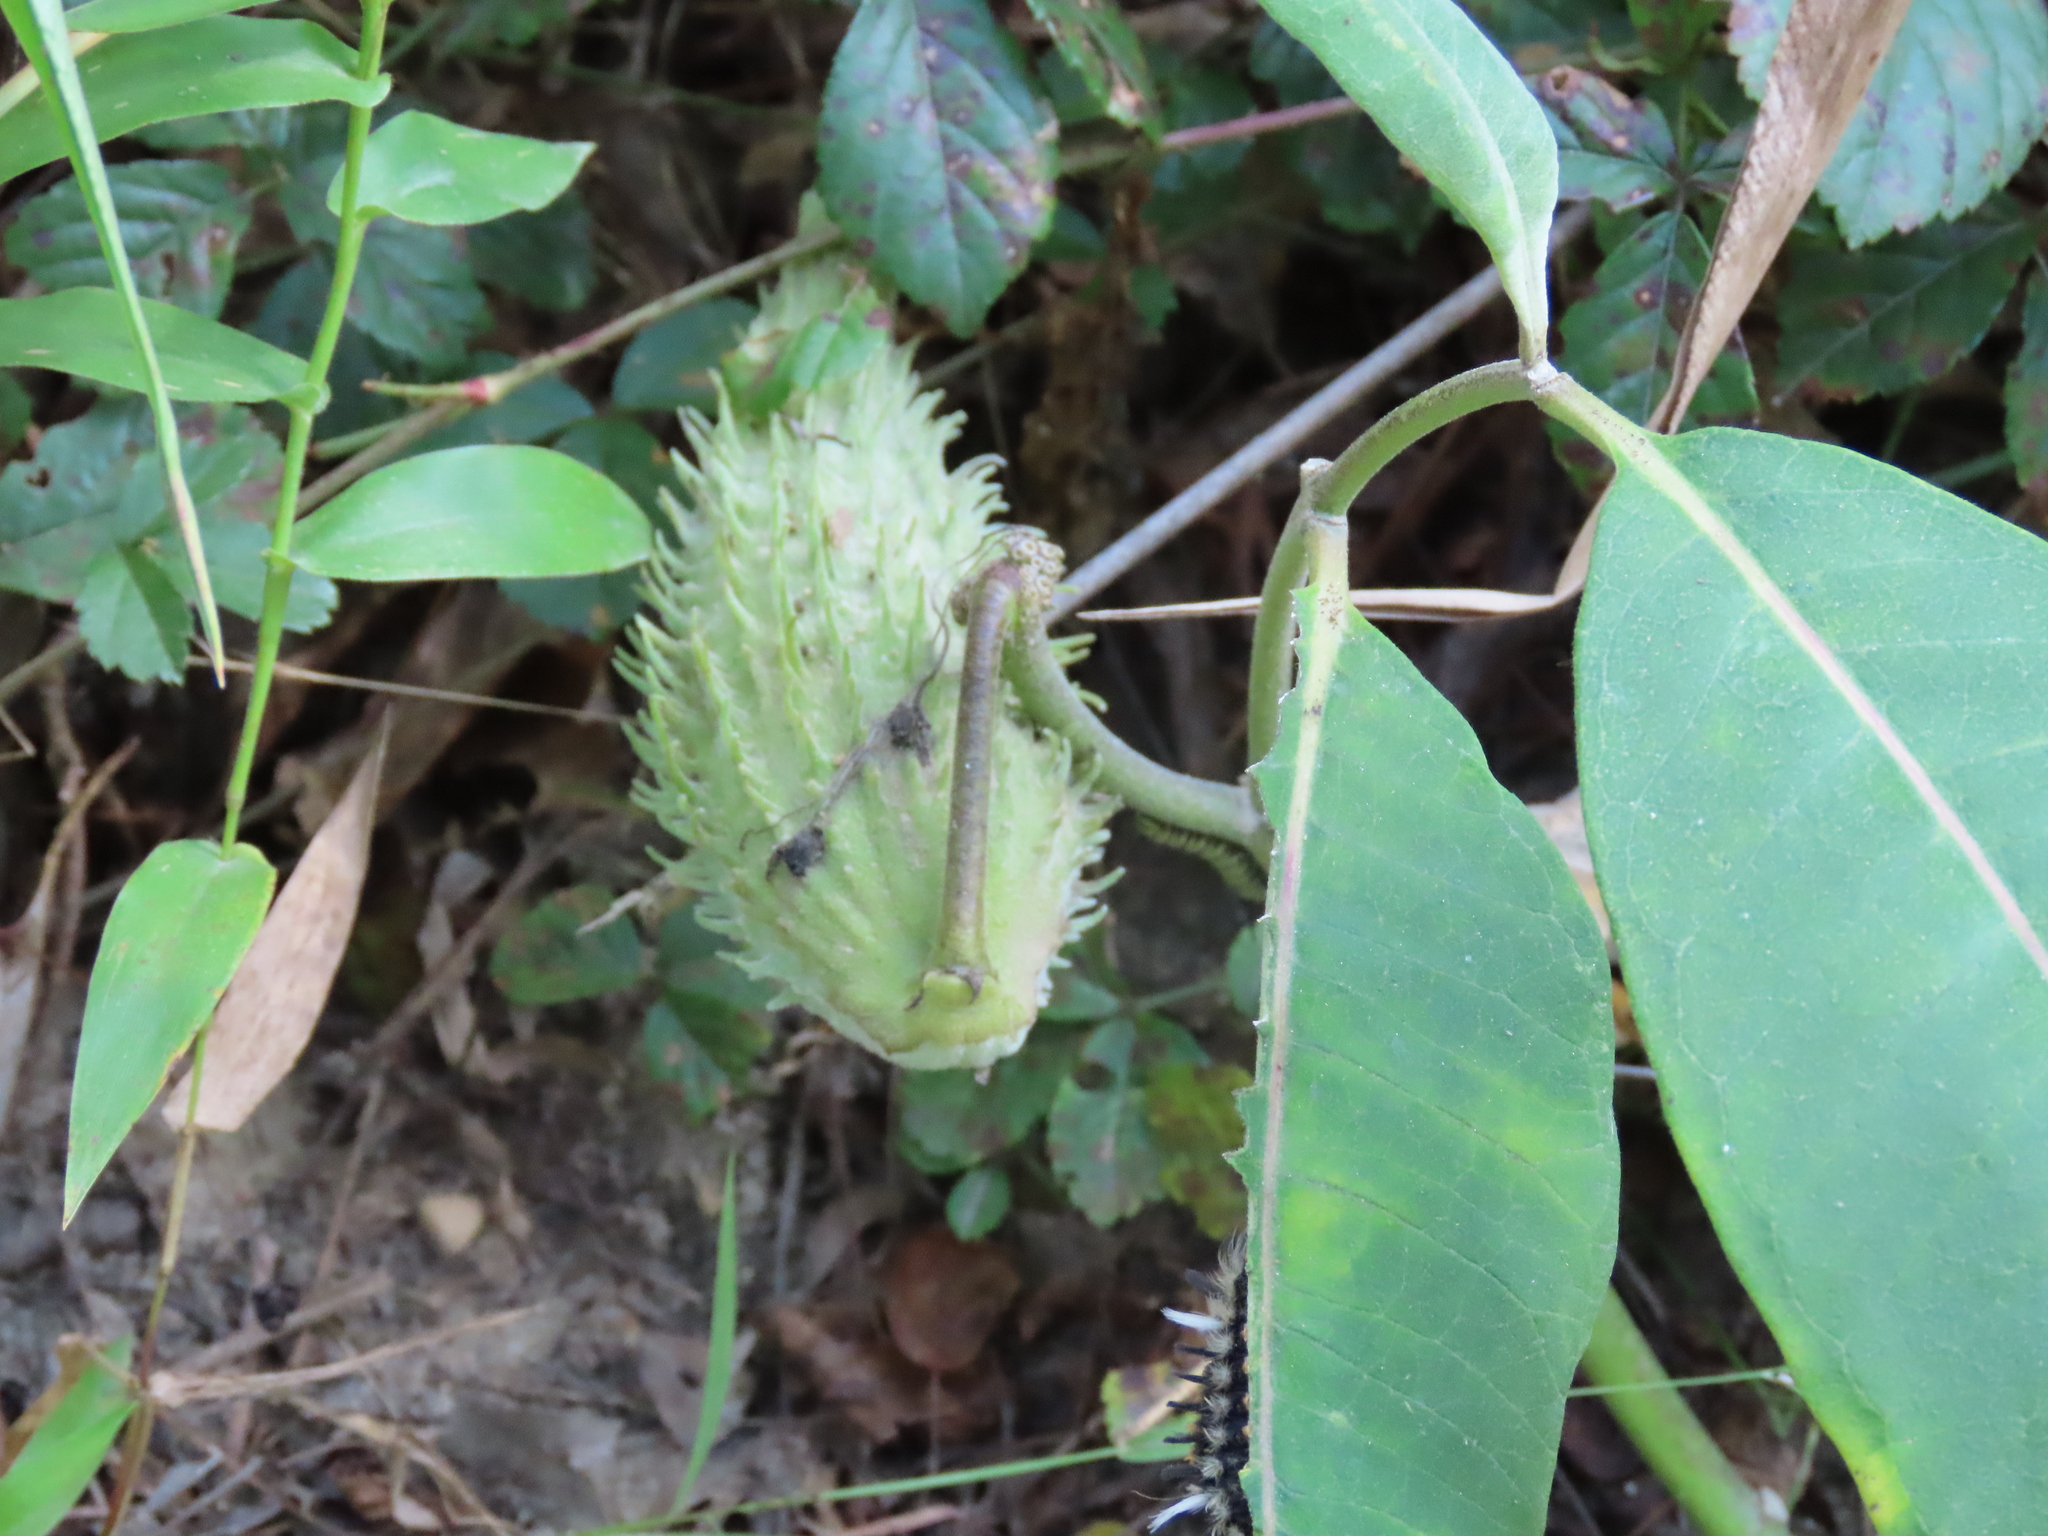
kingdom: Plantae
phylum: Tracheophyta
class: Magnoliopsida
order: Gentianales
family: Apocynaceae
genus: Asclepias
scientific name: Asclepias syriaca
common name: Common milkweed
